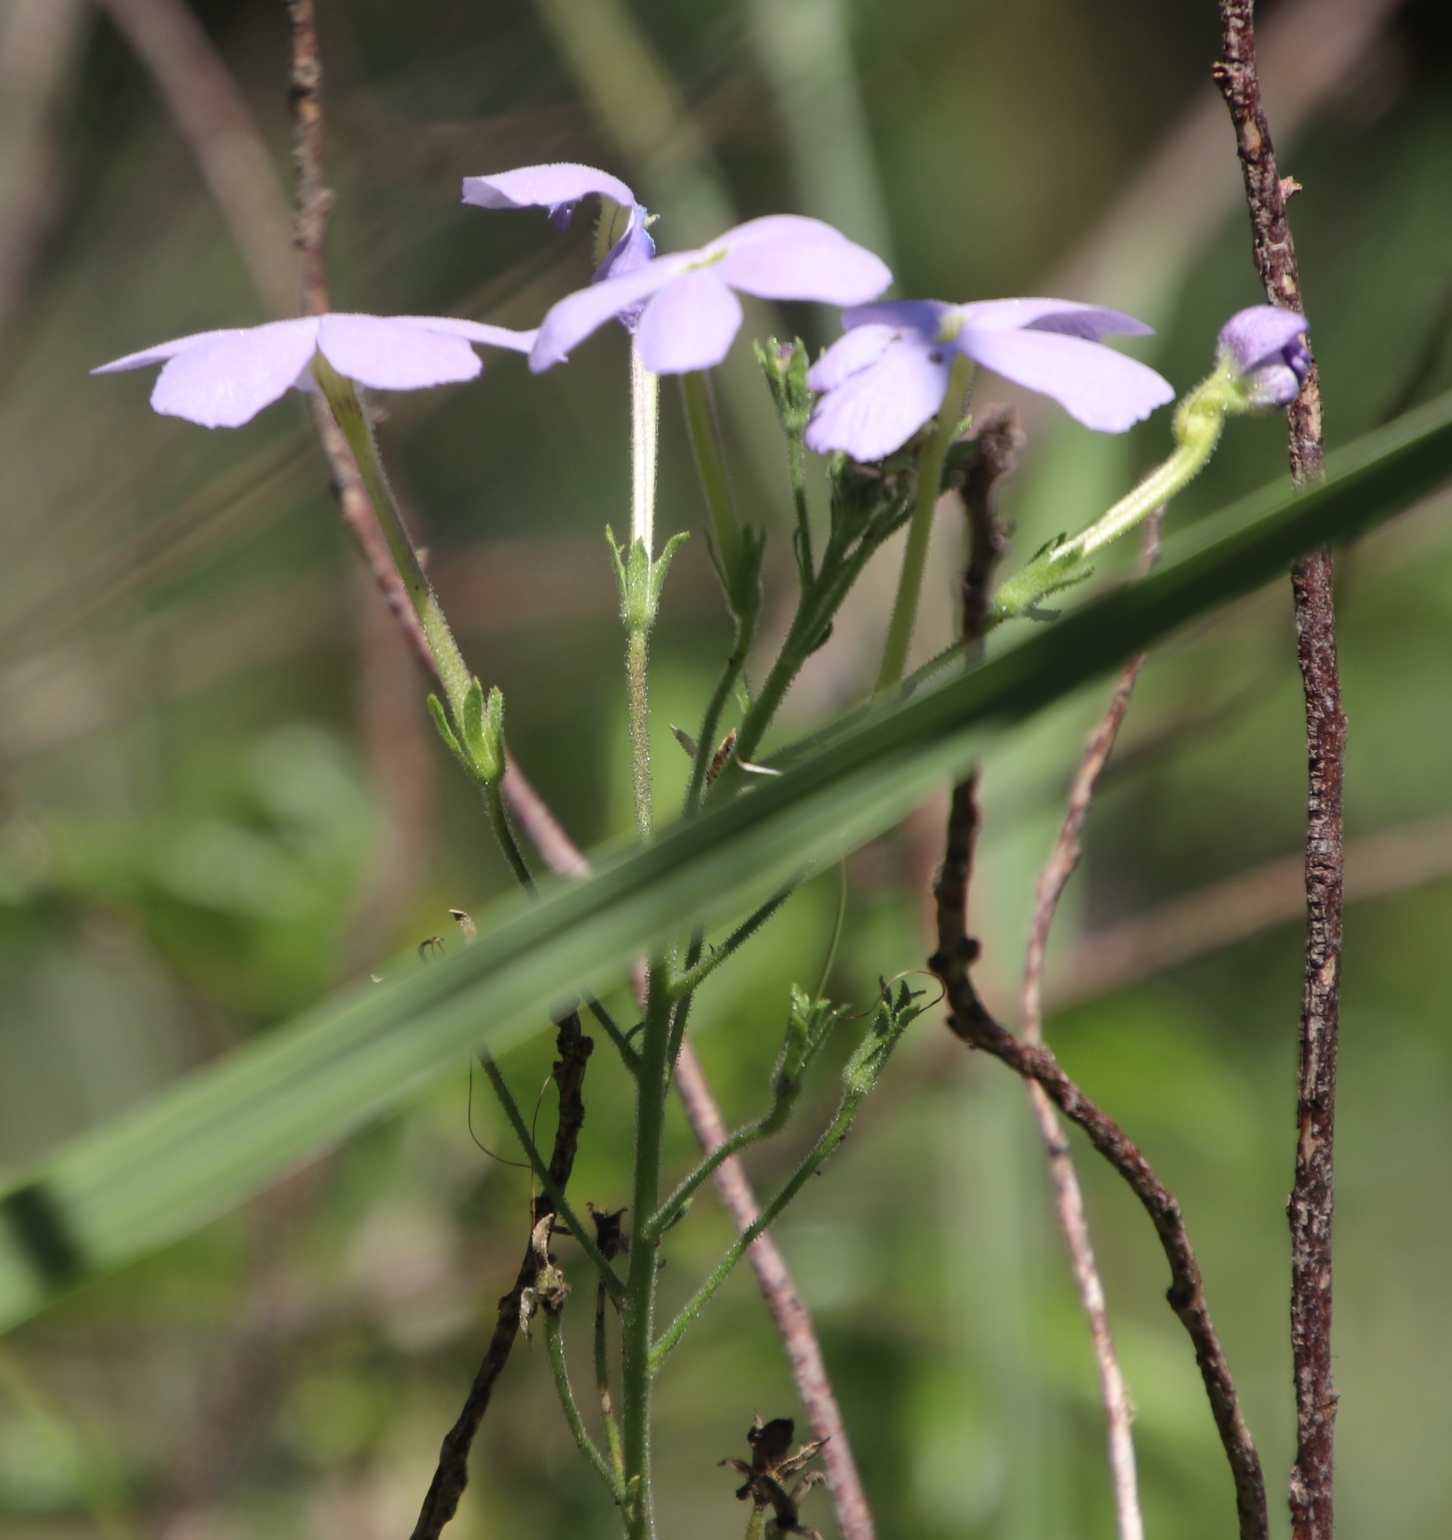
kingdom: Plantae
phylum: Tracheophyta
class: Magnoliopsida
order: Lamiales
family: Scrophulariaceae
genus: Jamesbrittenia
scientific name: Jamesbrittenia grandiflora
